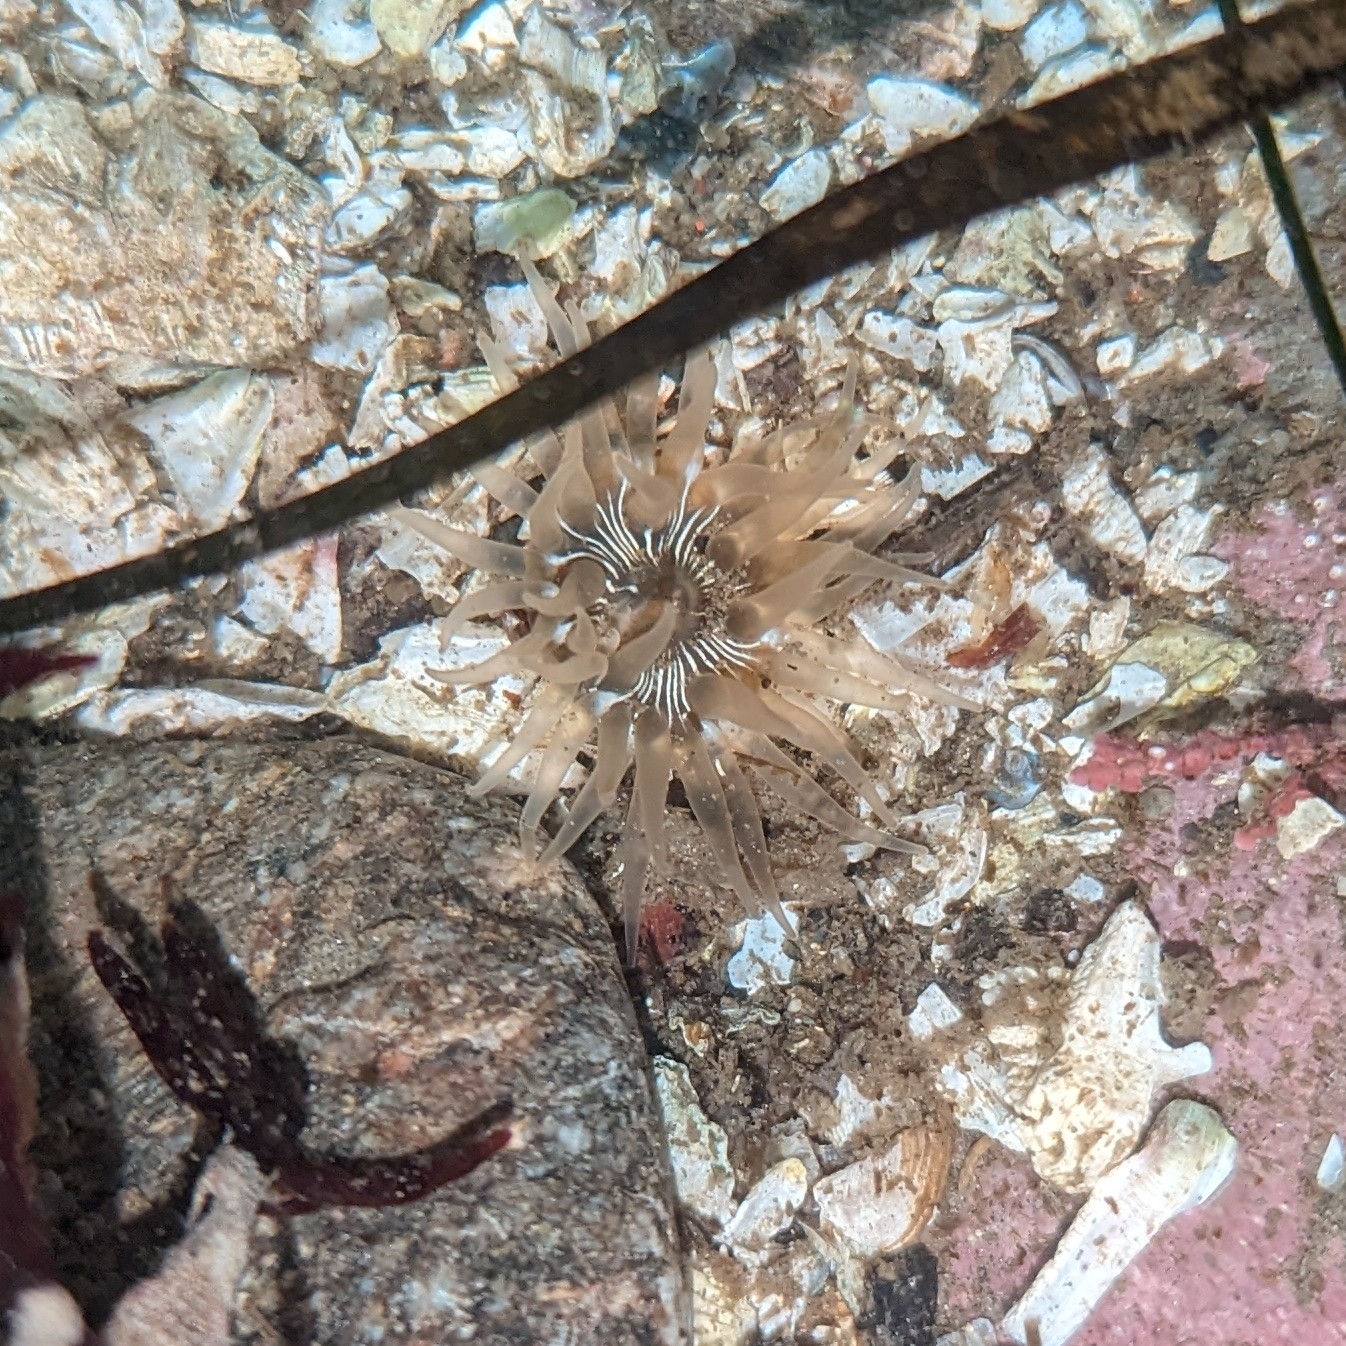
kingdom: Animalia
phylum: Cnidaria
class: Anthozoa
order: Actiniaria
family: Actiniidae
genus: Aulactinia
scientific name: Aulactinia incubans
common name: Incubating anemone
